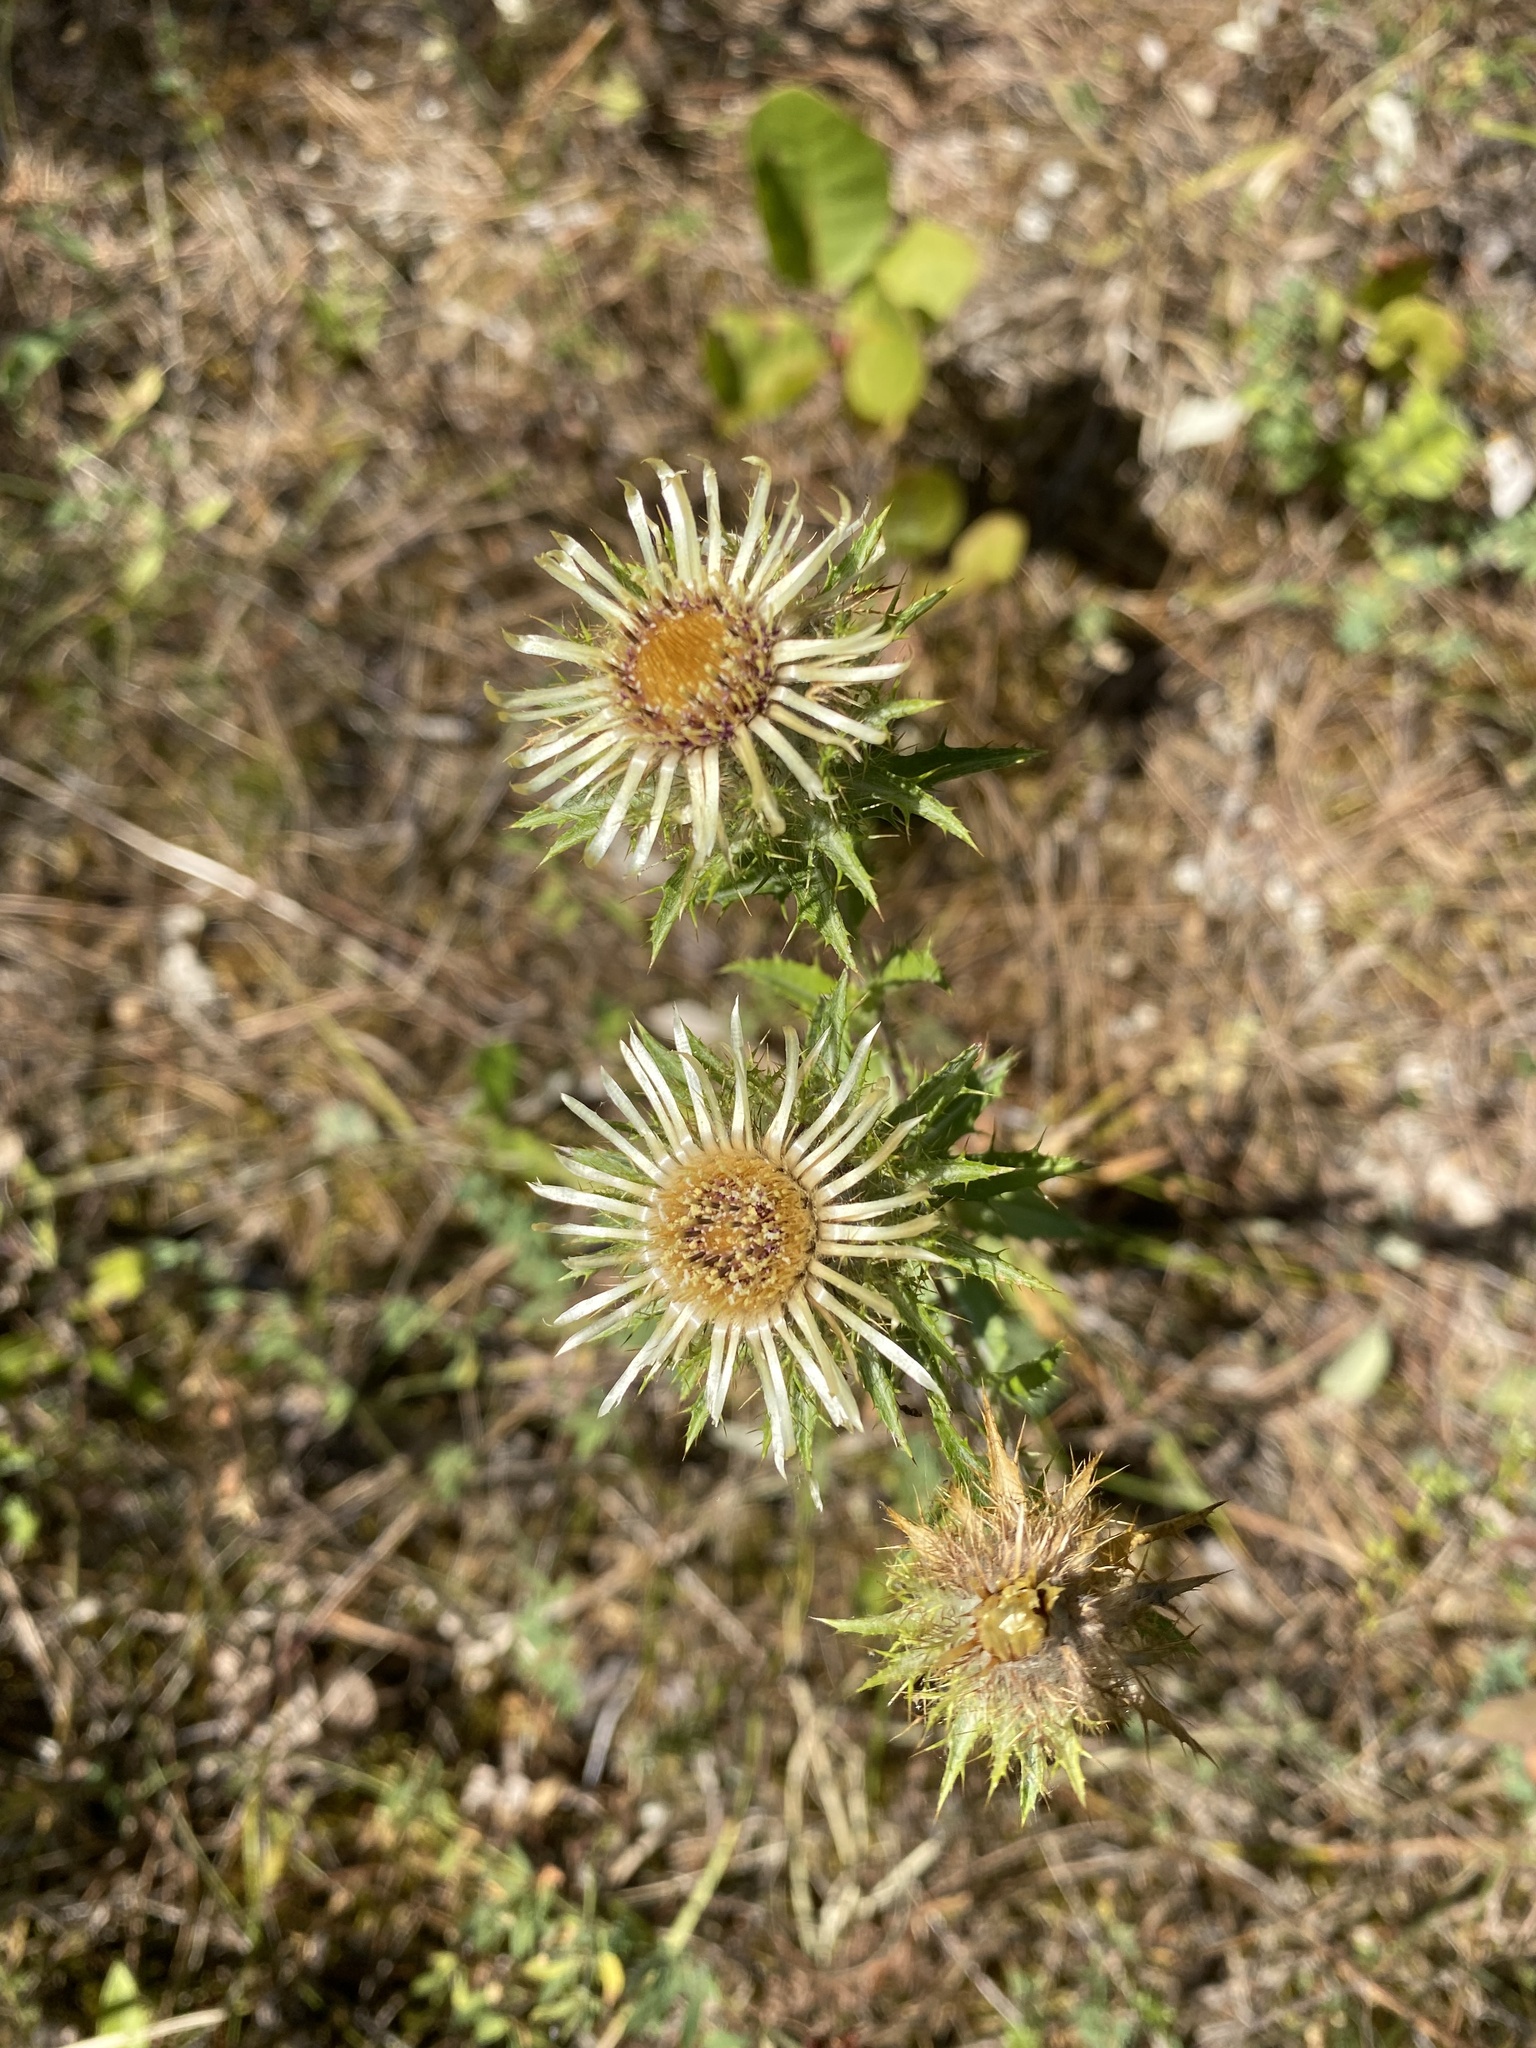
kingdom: Plantae
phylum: Tracheophyta
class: Magnoliopsida
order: Asterales
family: Asteraceae
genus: Carlina
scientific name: Carlina biebersteinii
